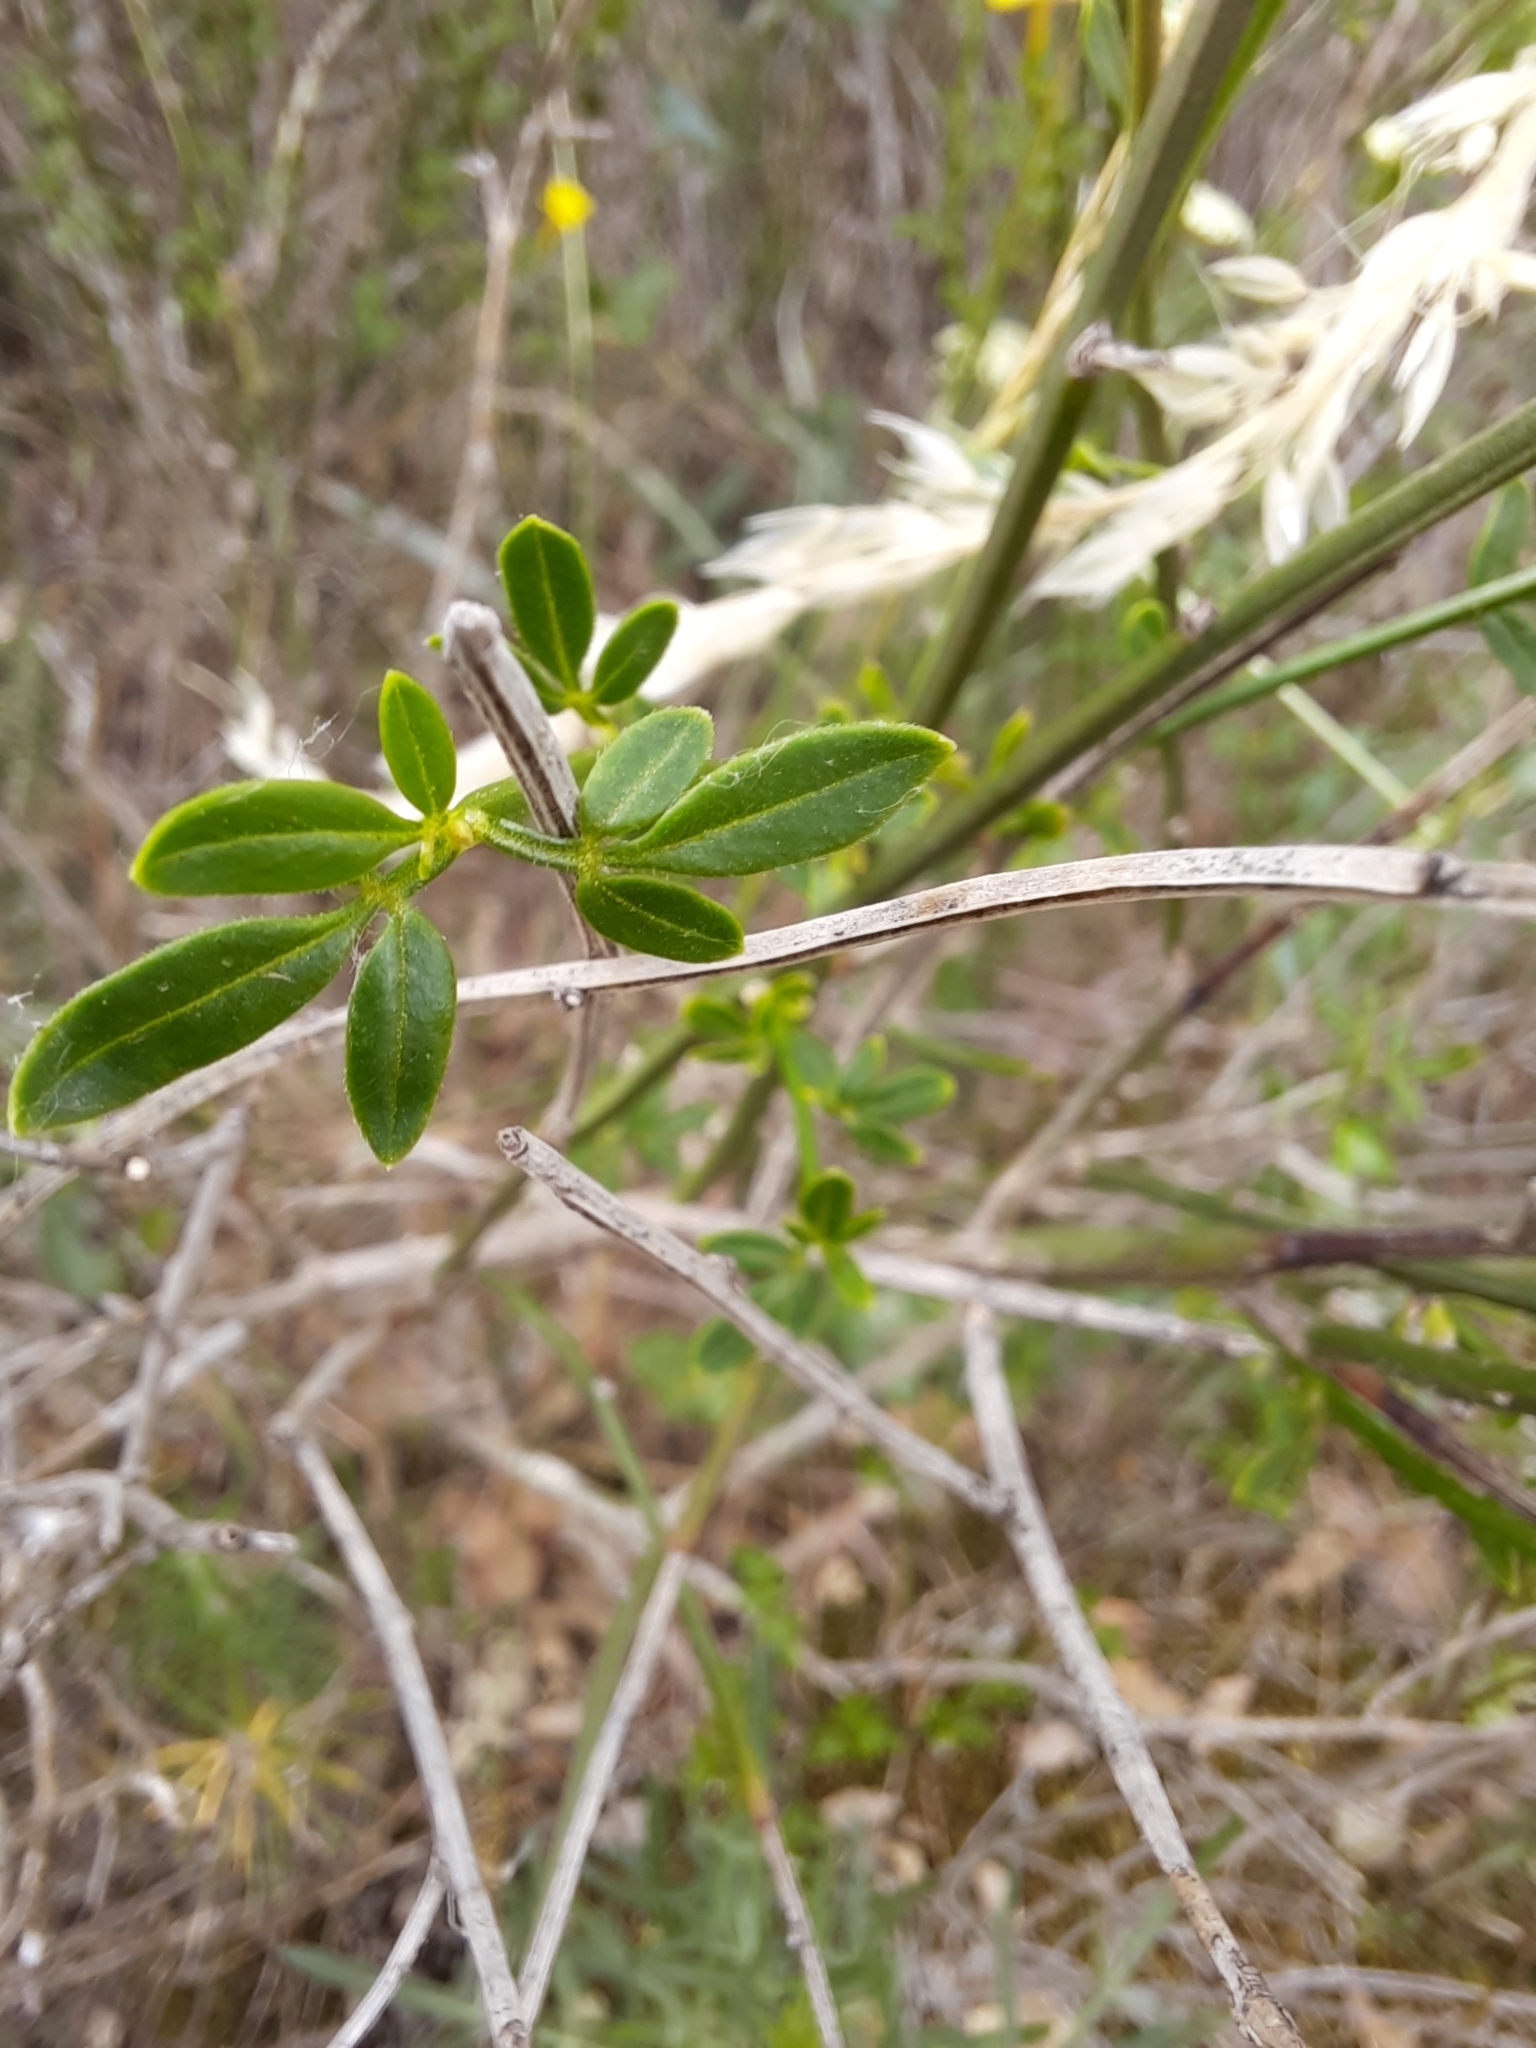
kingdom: Plantae
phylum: Tracheophyta
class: Magnoliopsida
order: Lamiales
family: Oleaceae
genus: Chrysojasminum
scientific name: Chrysojasminum fruticans
